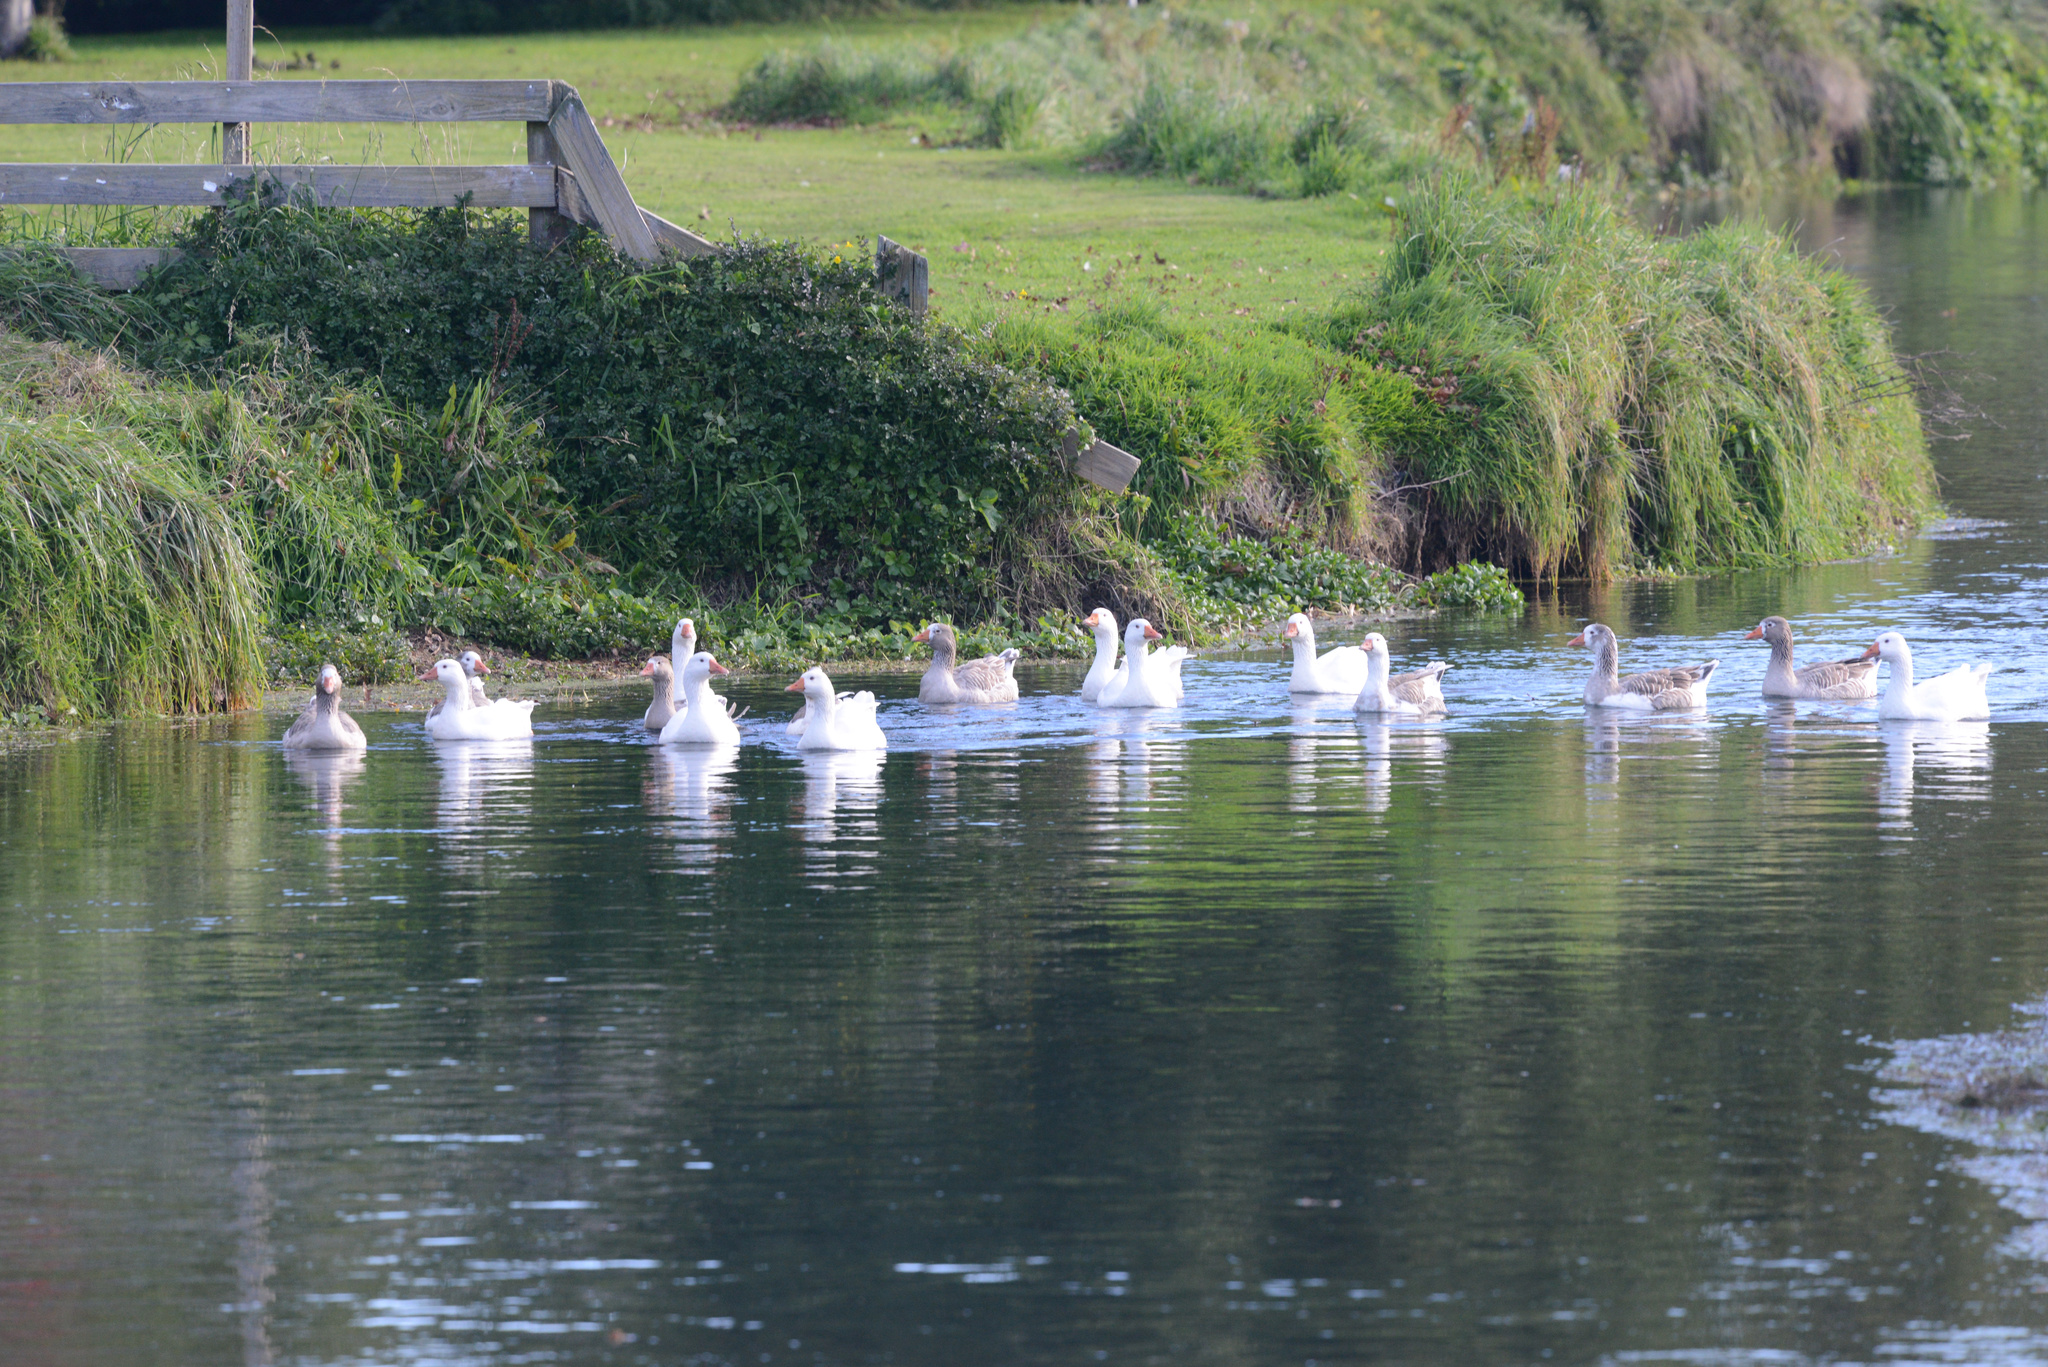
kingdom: Animalia
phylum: Chordata
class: Aves
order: Anseriformes
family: Anatidae
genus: Anser
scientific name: Anser anser
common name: Greylag goose
